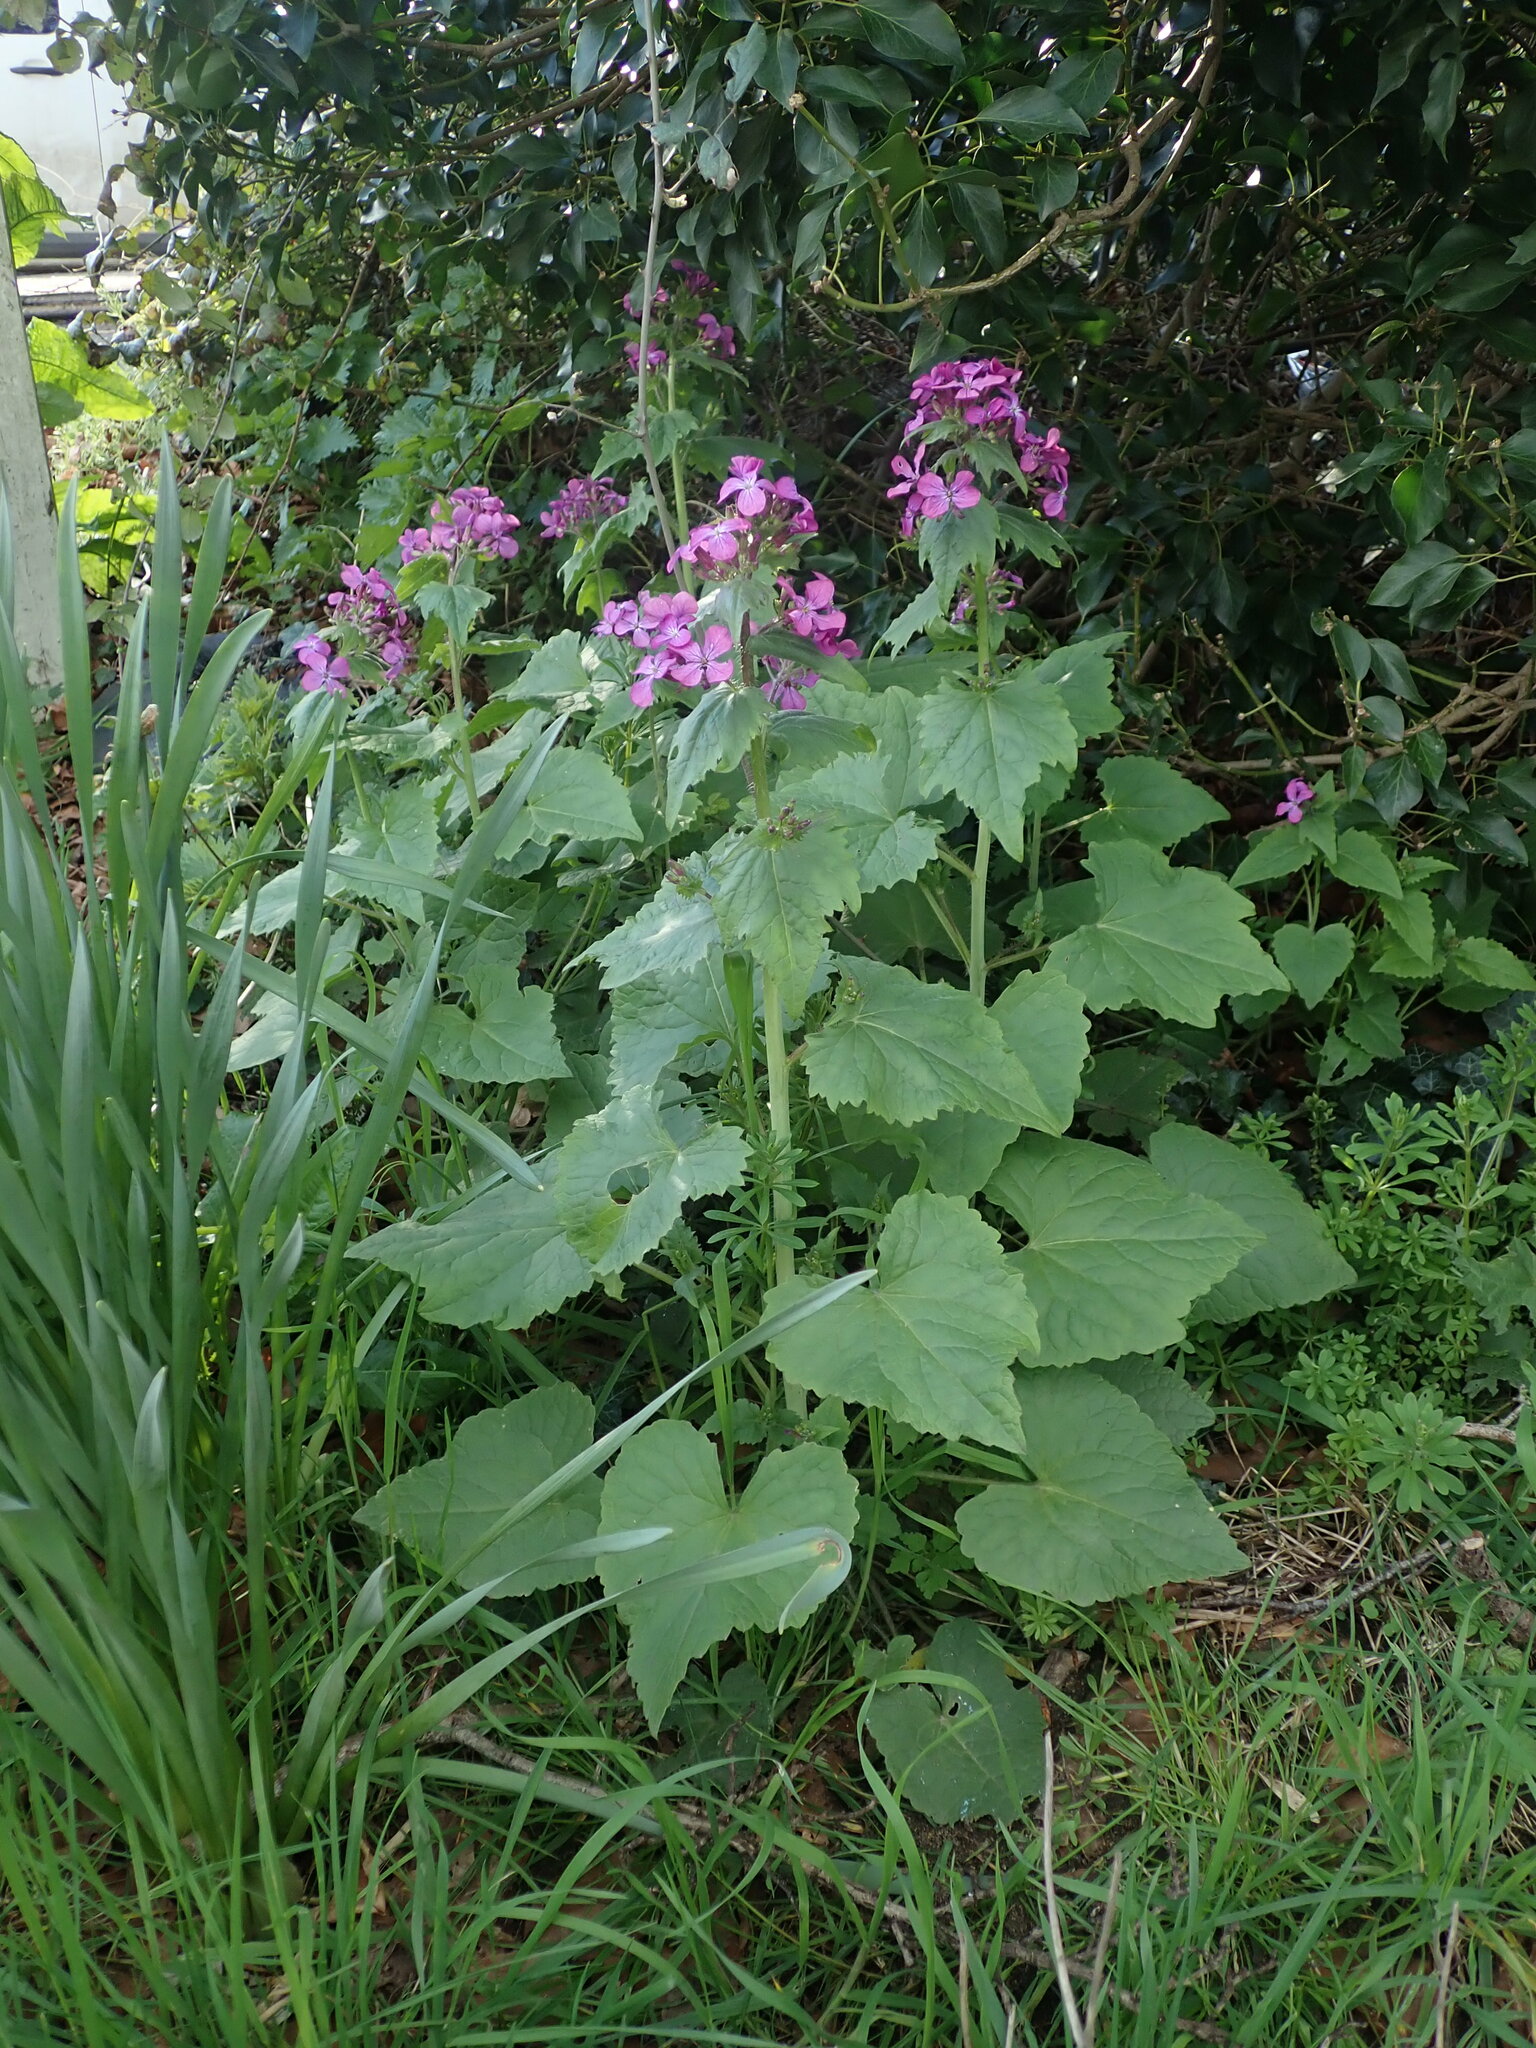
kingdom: Plantae
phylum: Tracheophyta
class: Magnoliopsida
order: Brassicales
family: Brassicaceae
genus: Lunaria
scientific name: Lunaria annua
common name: Honesty
